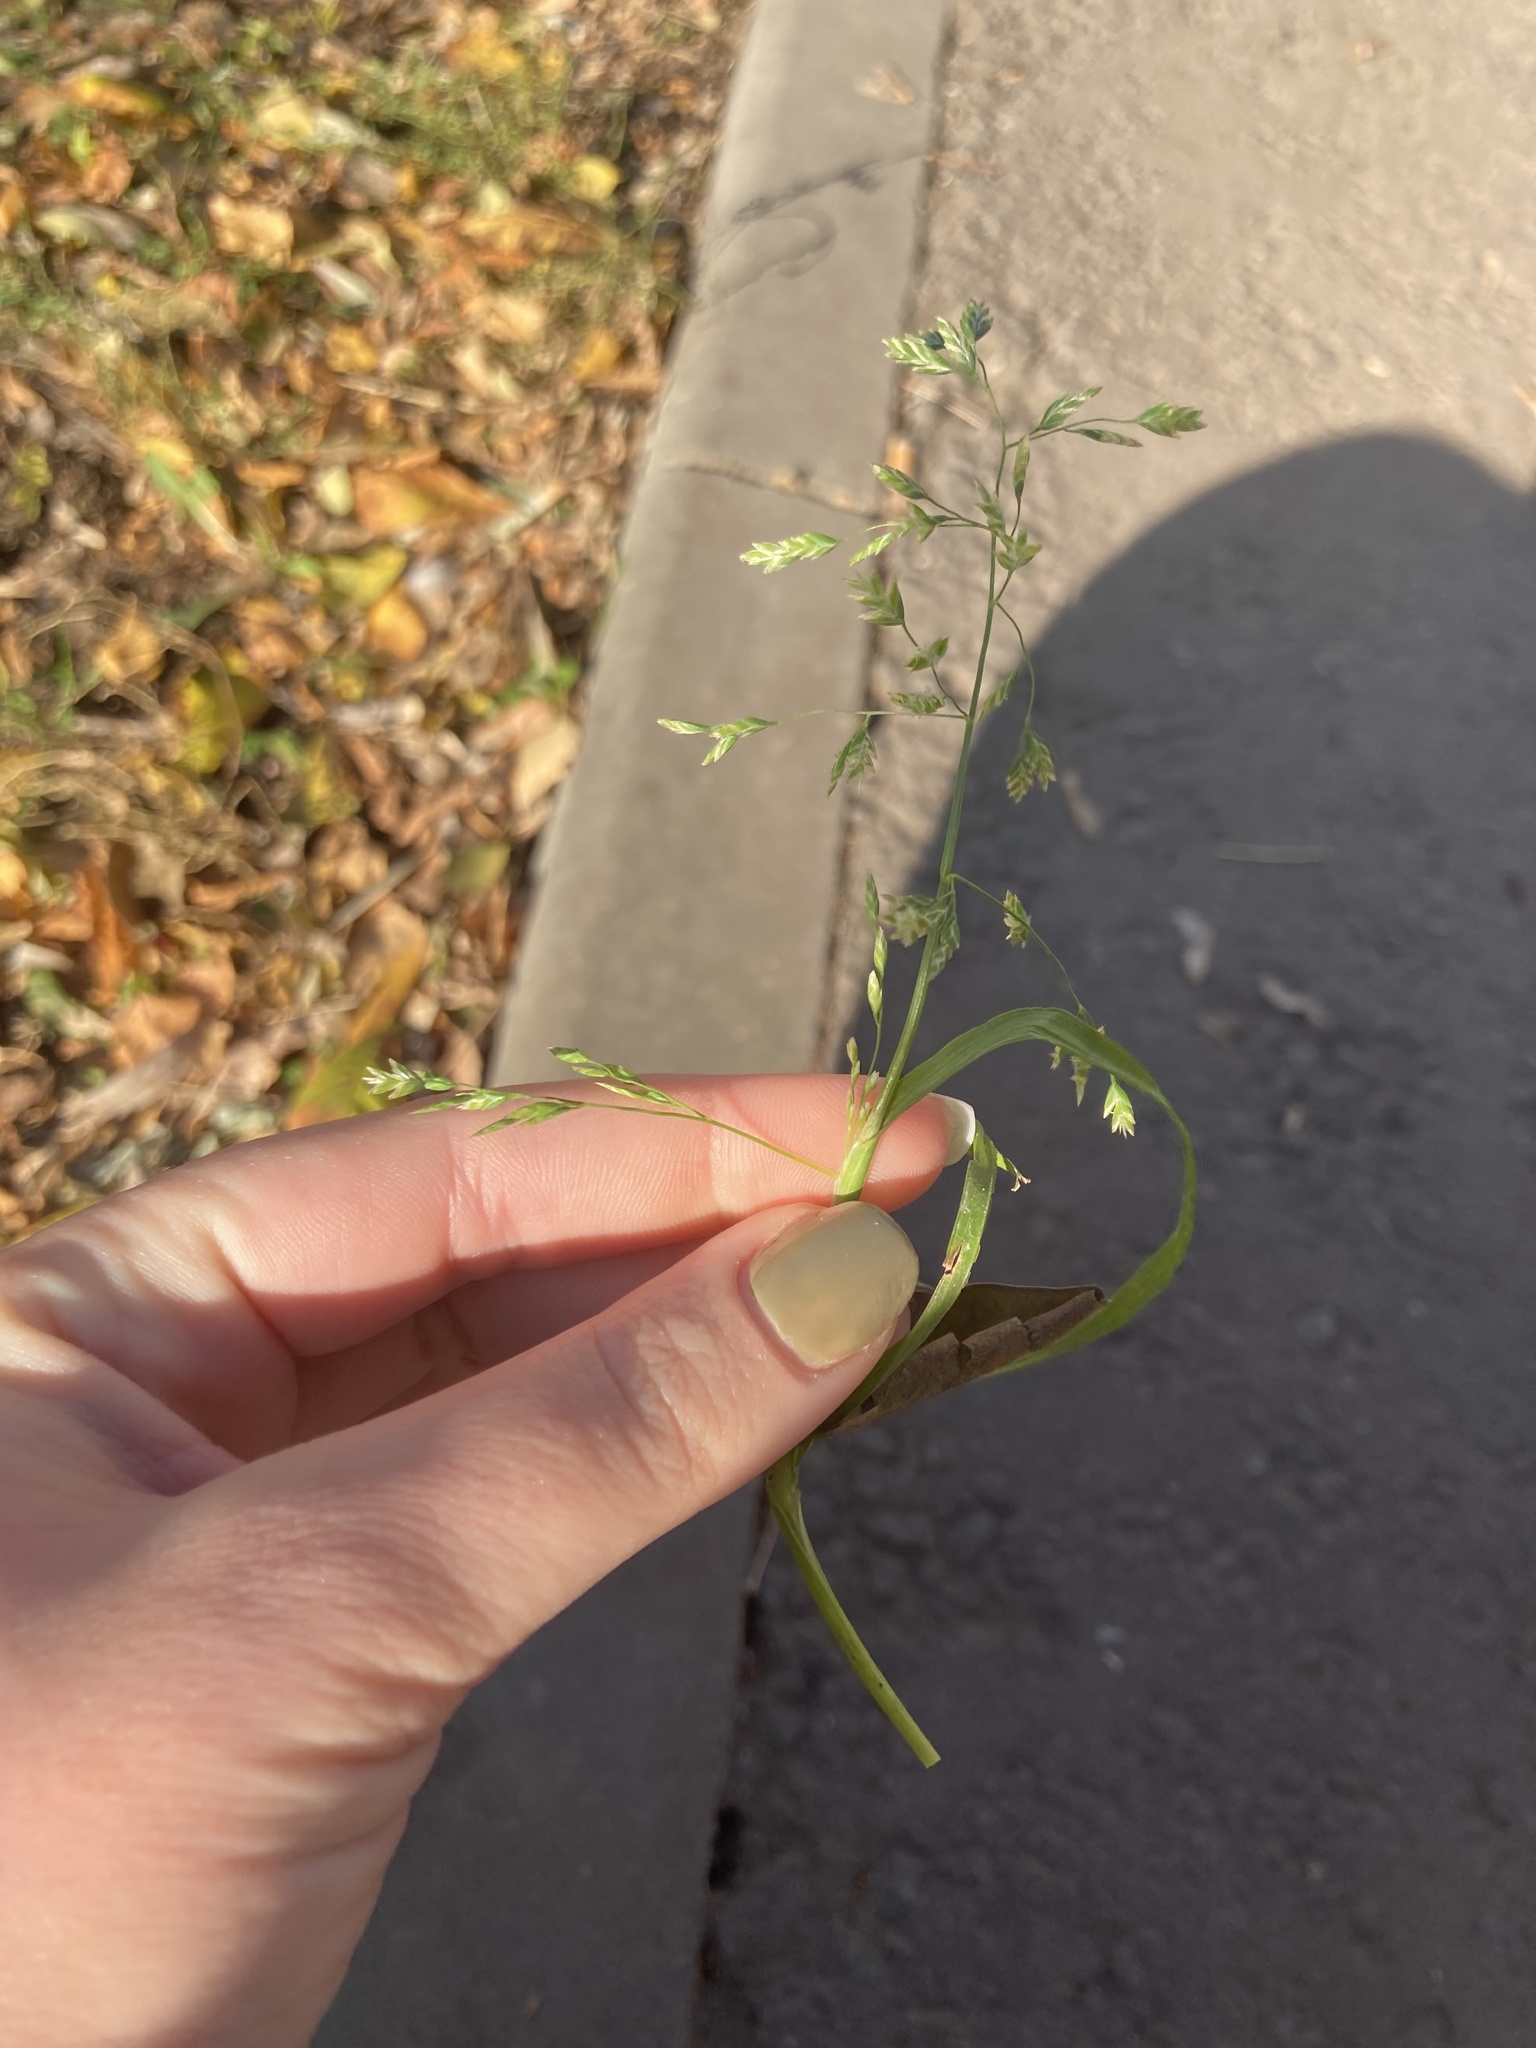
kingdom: Plantae
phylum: Tracheophyta
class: Liliopsida
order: Poales
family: Poaceae
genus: Poa
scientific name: Poa annua
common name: Annual bluegrass
